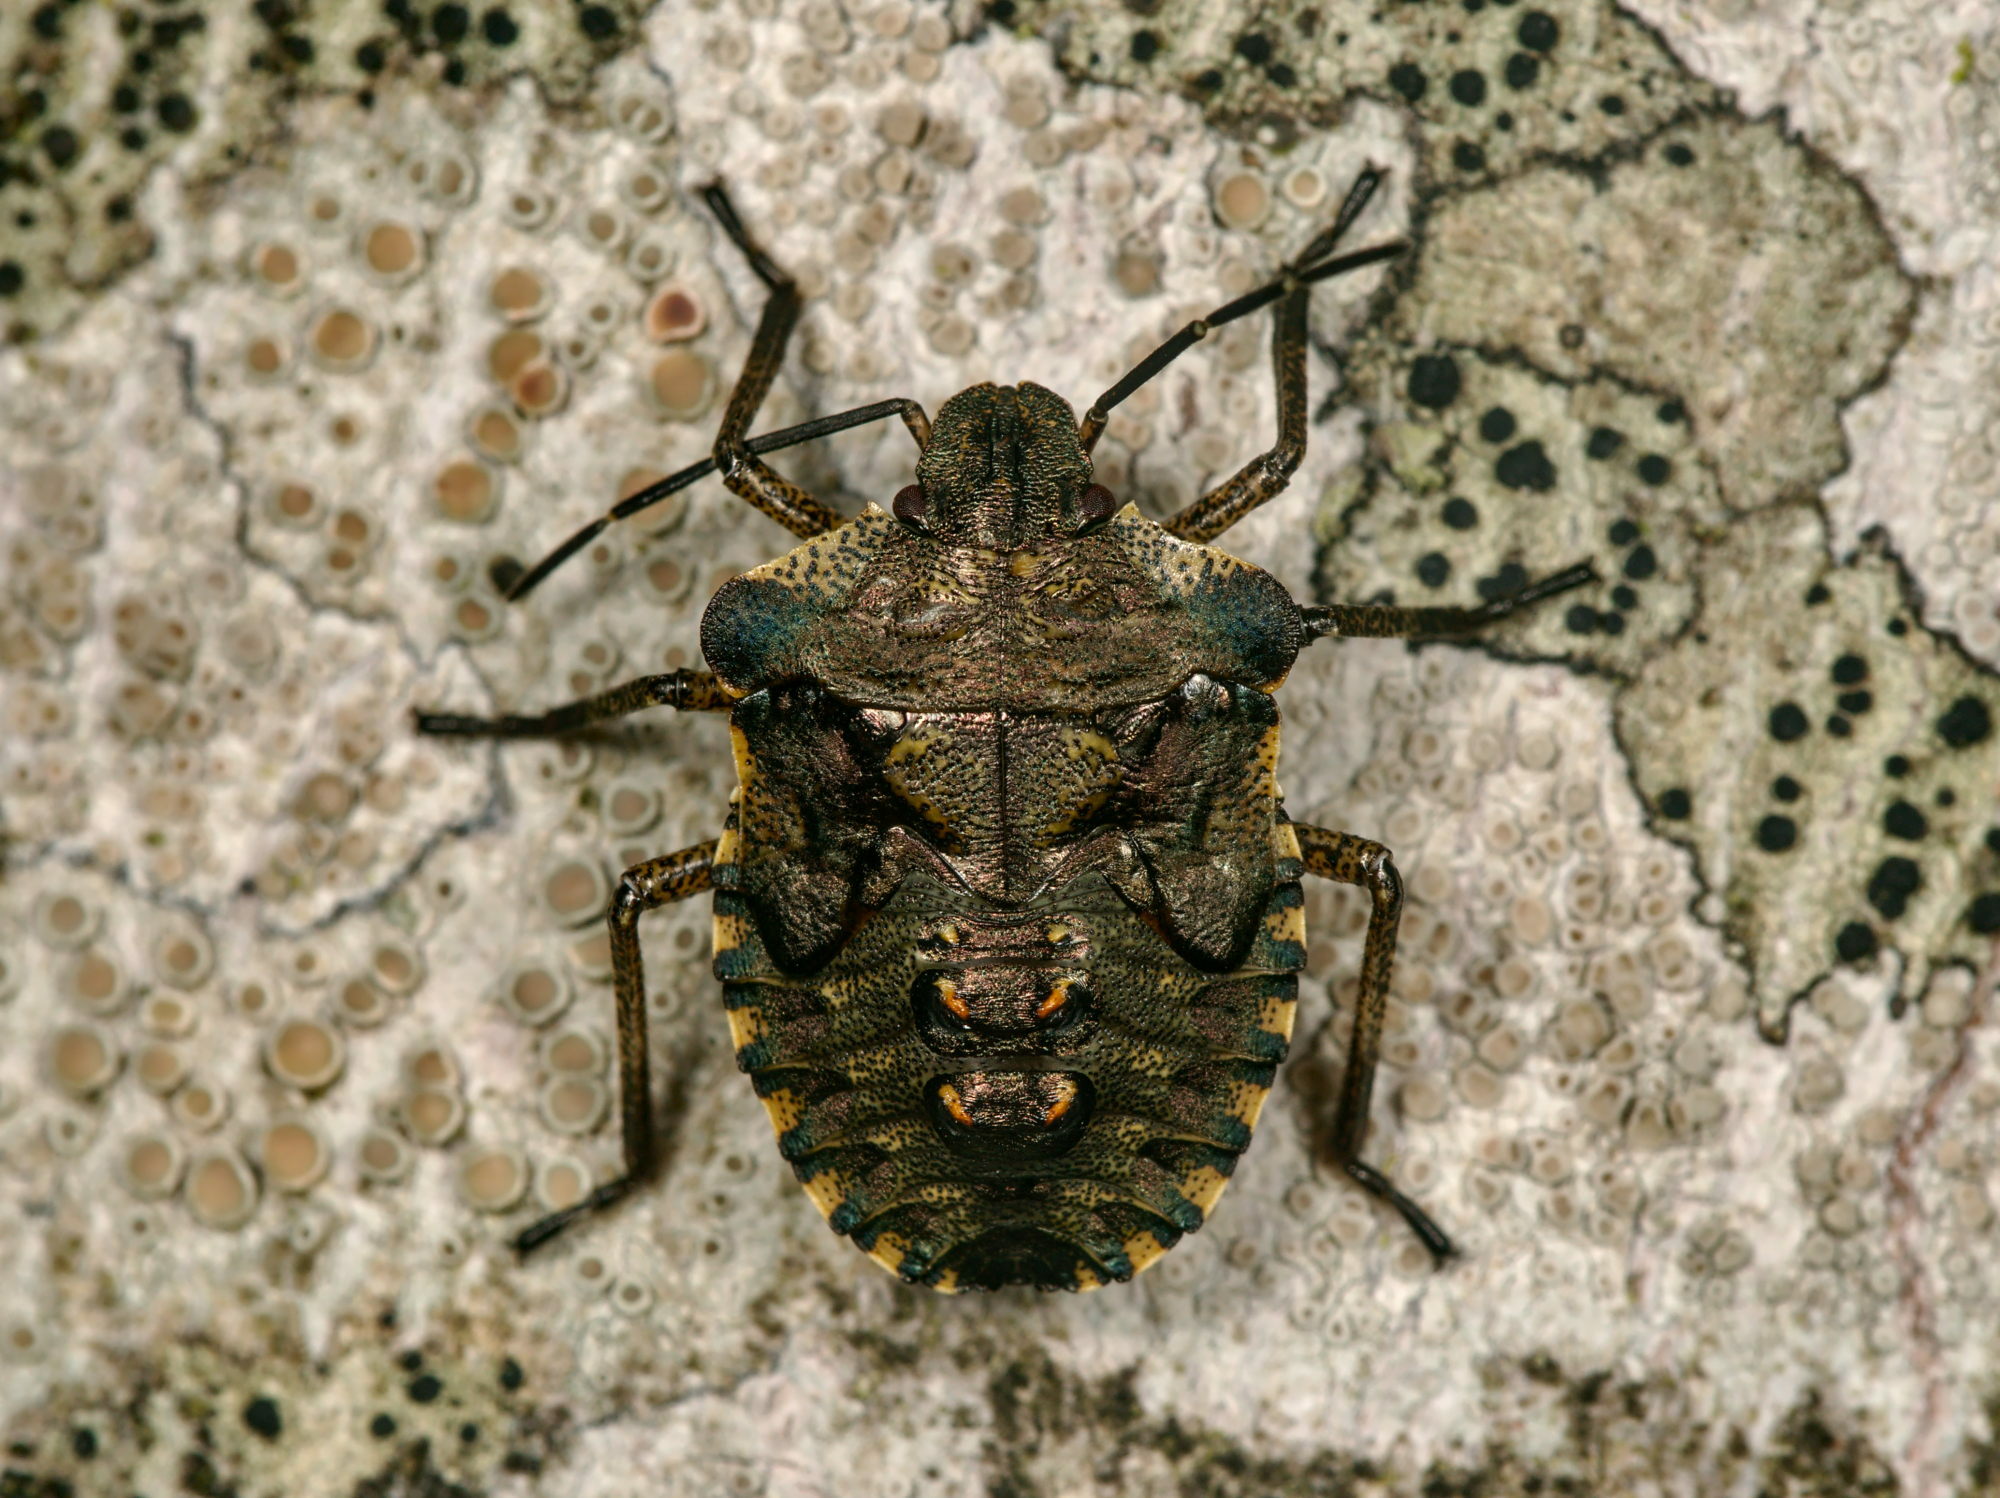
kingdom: Animalia
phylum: Arthropoda
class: Insecta
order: Hemiptera
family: Pentatomidae
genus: Pentatoma
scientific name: Pentatoma rufipes
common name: Forest bug
